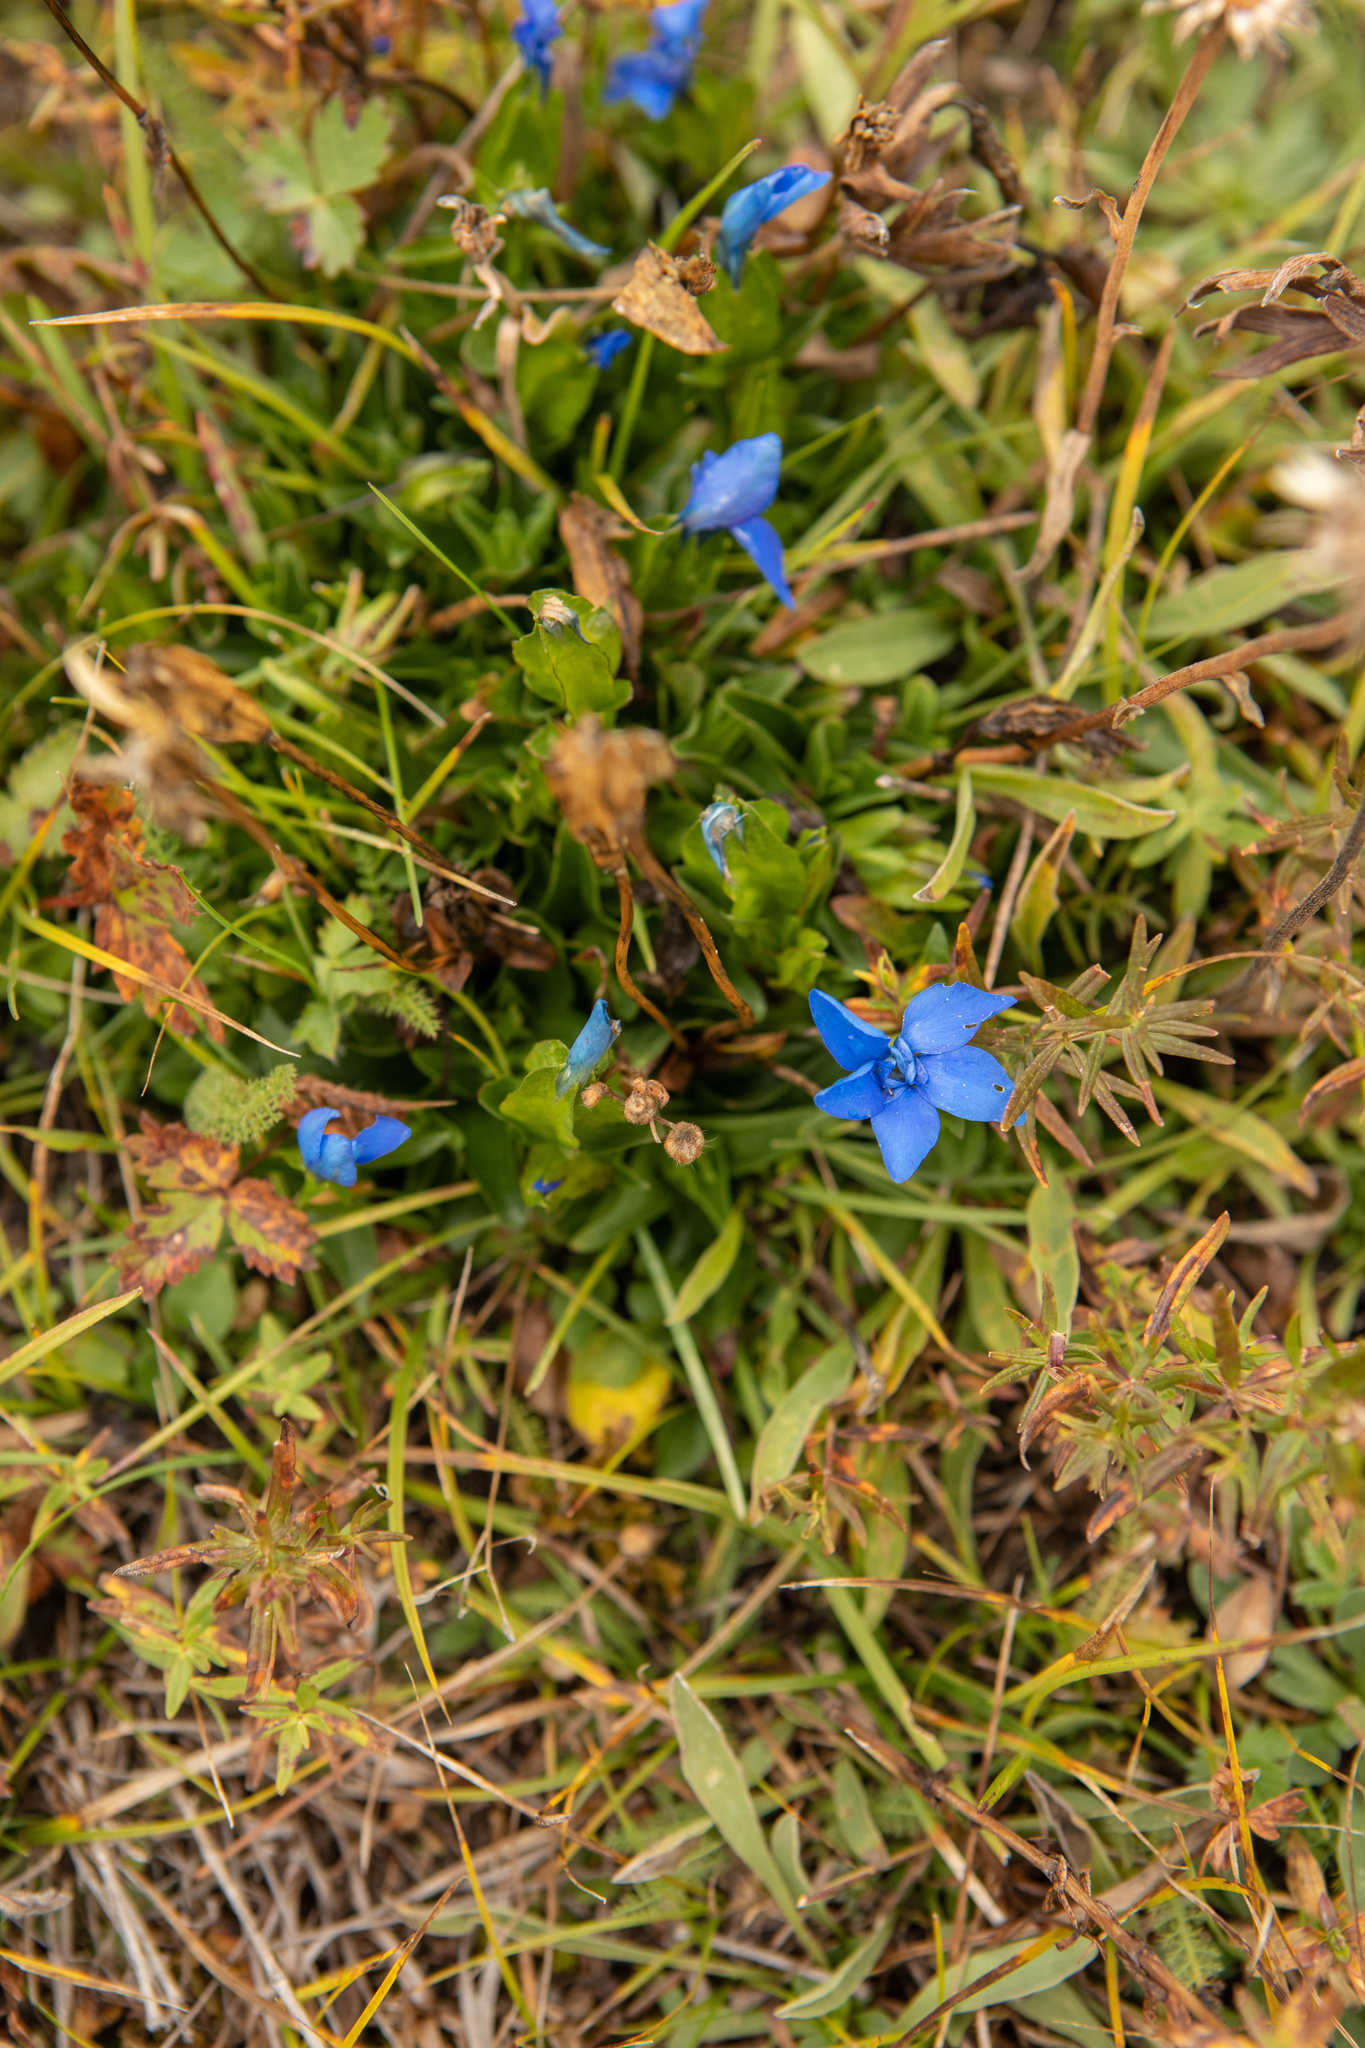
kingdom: Plantae
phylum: Tracheophyta
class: Magnoliopsida
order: Gentianales
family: Gentianaceae
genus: Gentiana
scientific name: Gentiana uniflora
